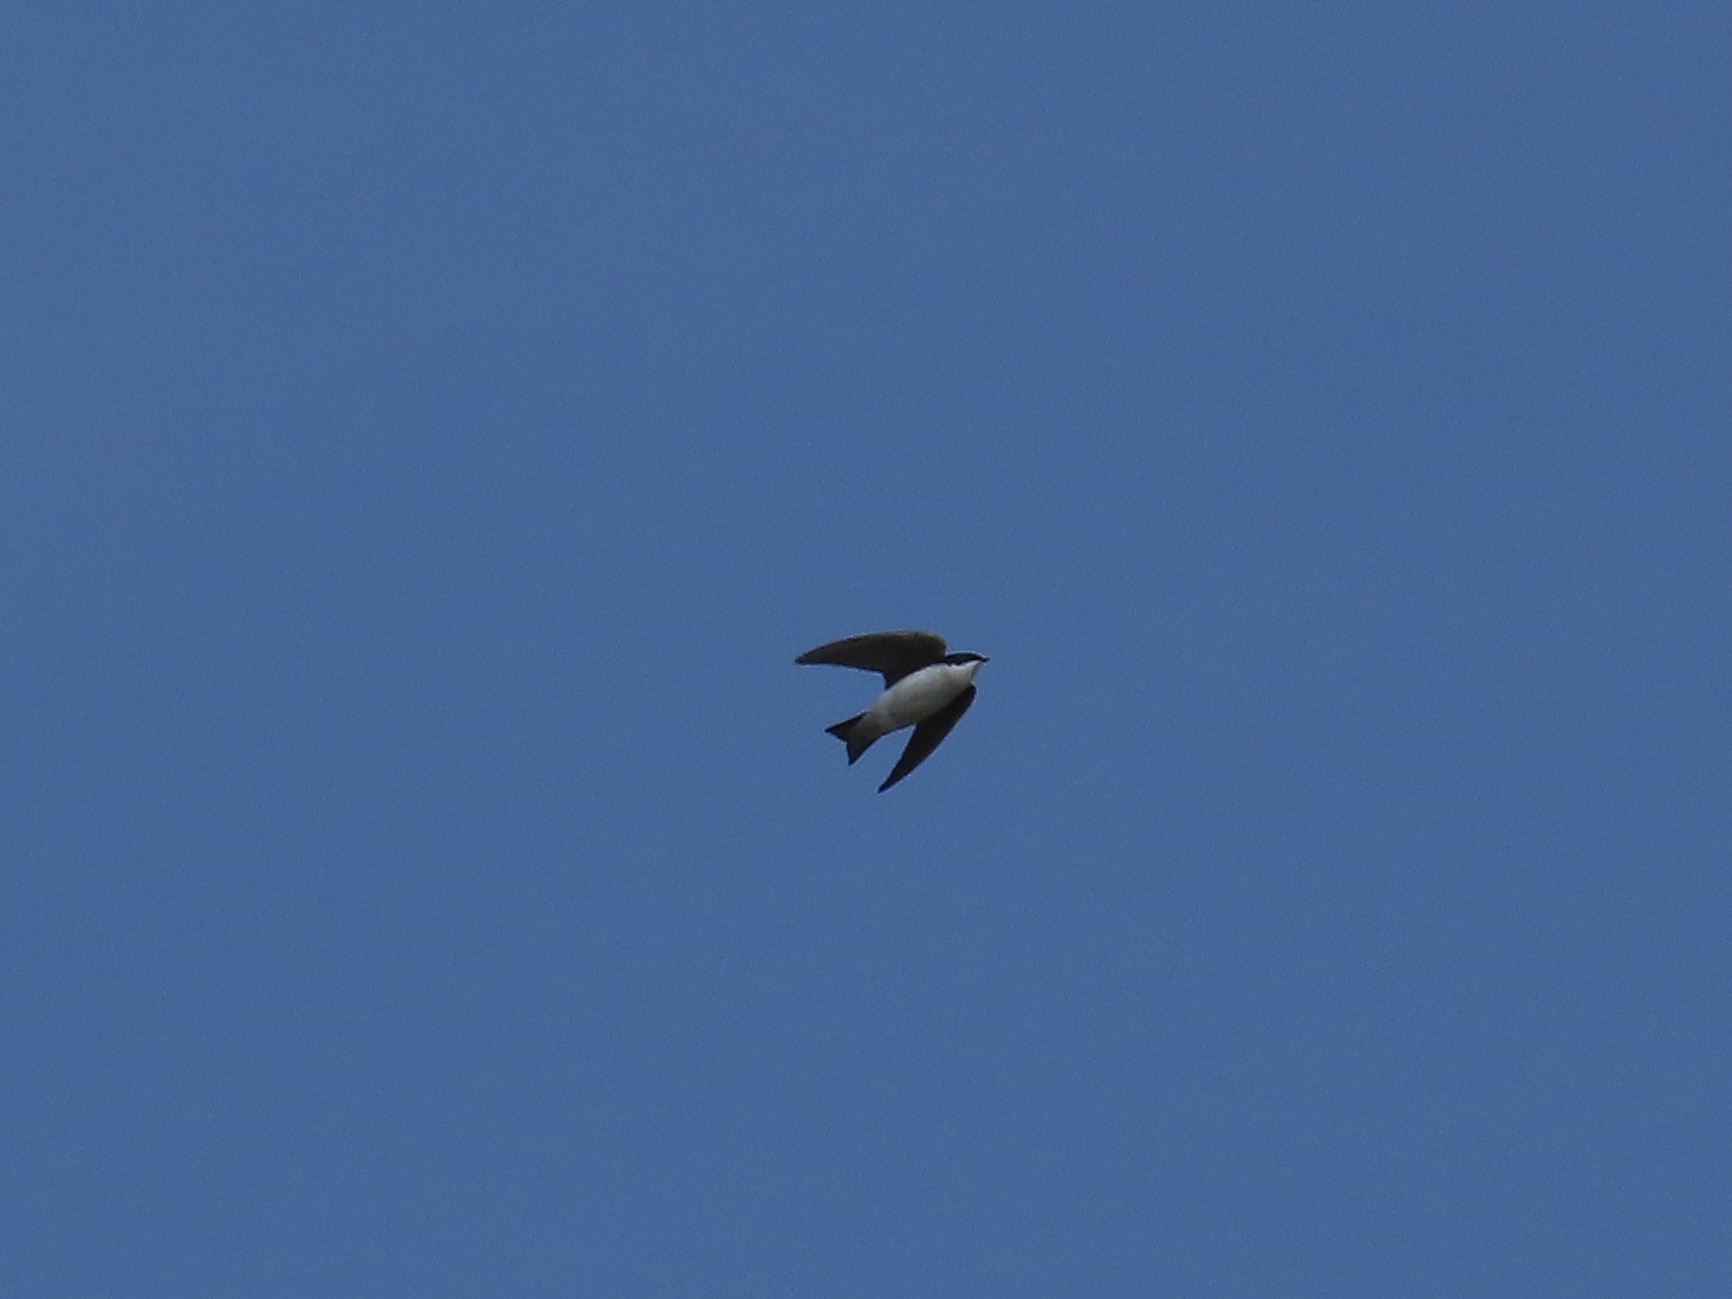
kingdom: Animalia
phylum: Chordata
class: Aves
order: Passeriformes
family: Hirundinidae
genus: Tachycineta
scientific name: Tachycineta bicolor
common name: Tree swallow
